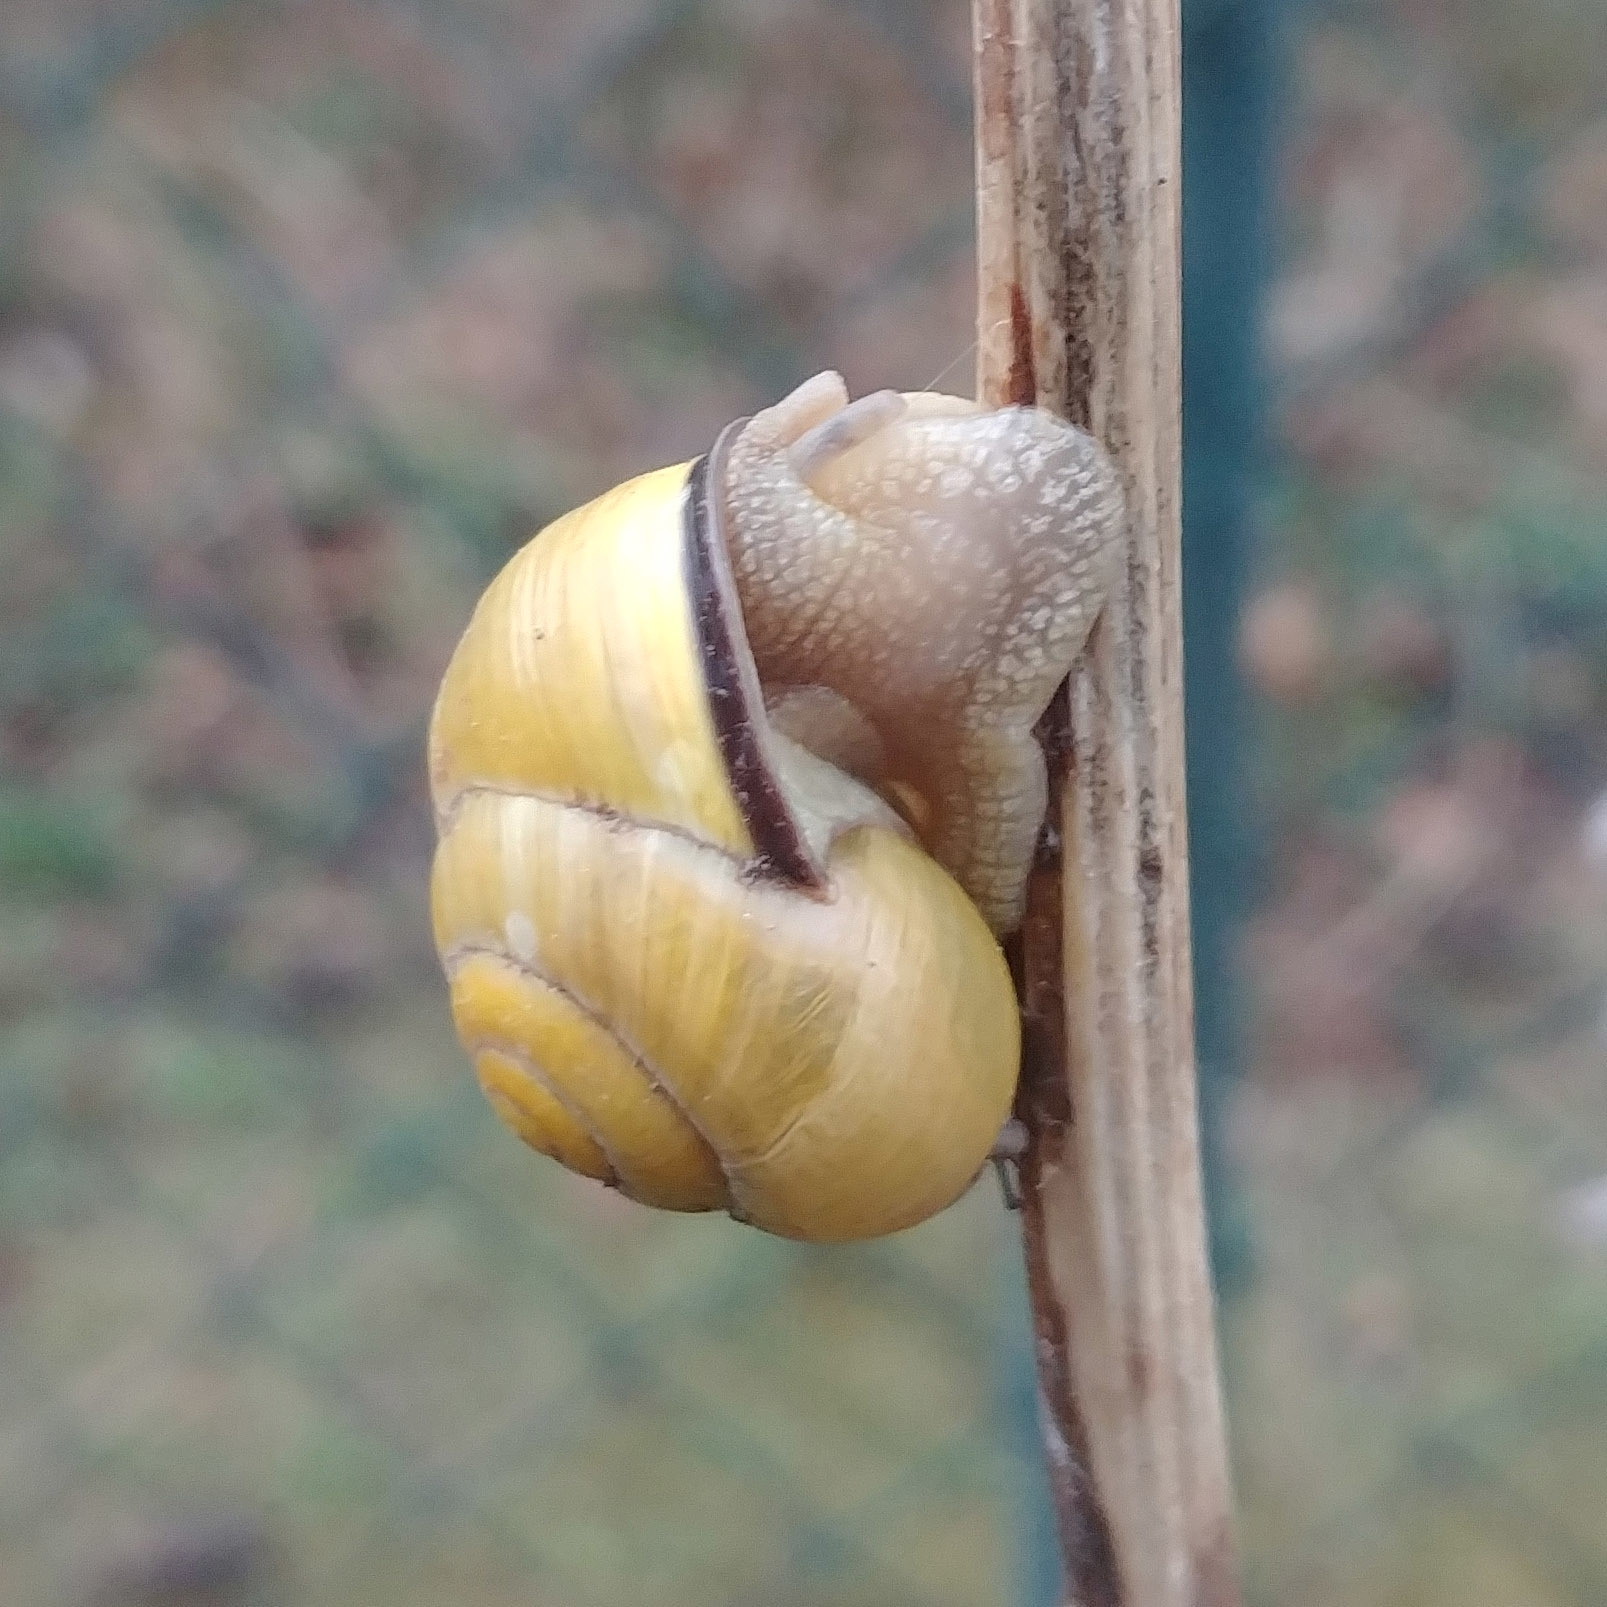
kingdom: Animalia
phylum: Mollusca
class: Gastropoda
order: Stylommatophora
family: Helicidae
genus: Cepaea
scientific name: Cepaea nemoralis
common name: Grovesnail
